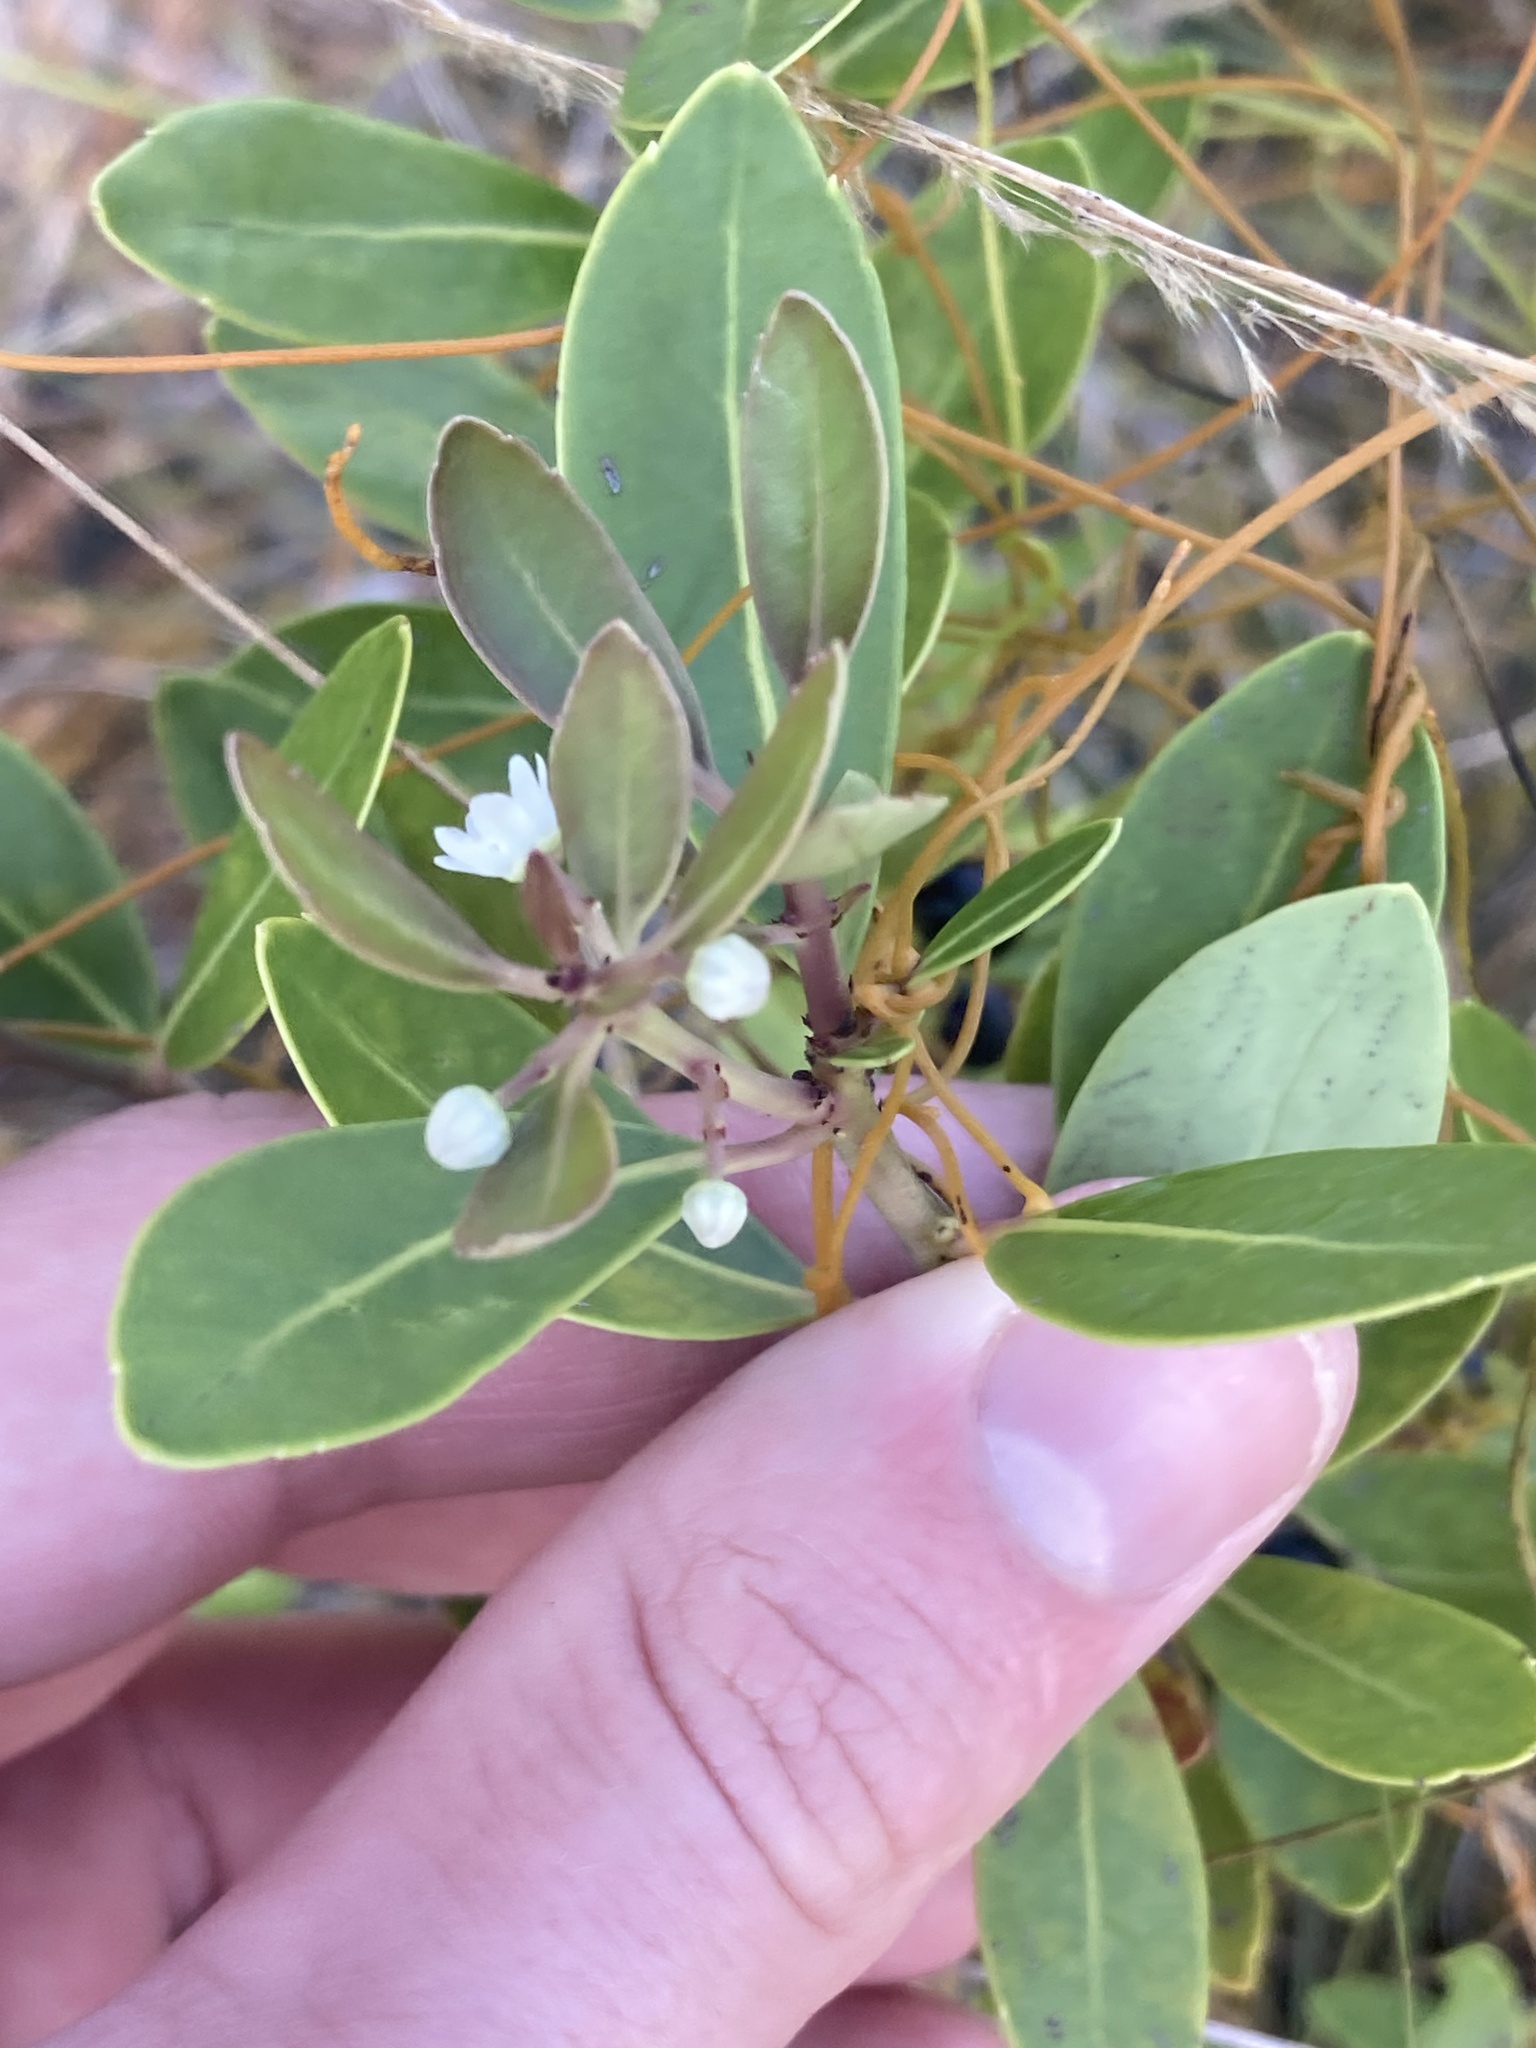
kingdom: Plantae
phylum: Tracheophyta
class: Magnoliopsida
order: Aquifoliales
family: Aquifoliaceae
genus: Ilex
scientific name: Ilex glabra
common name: Bitter gallberry
